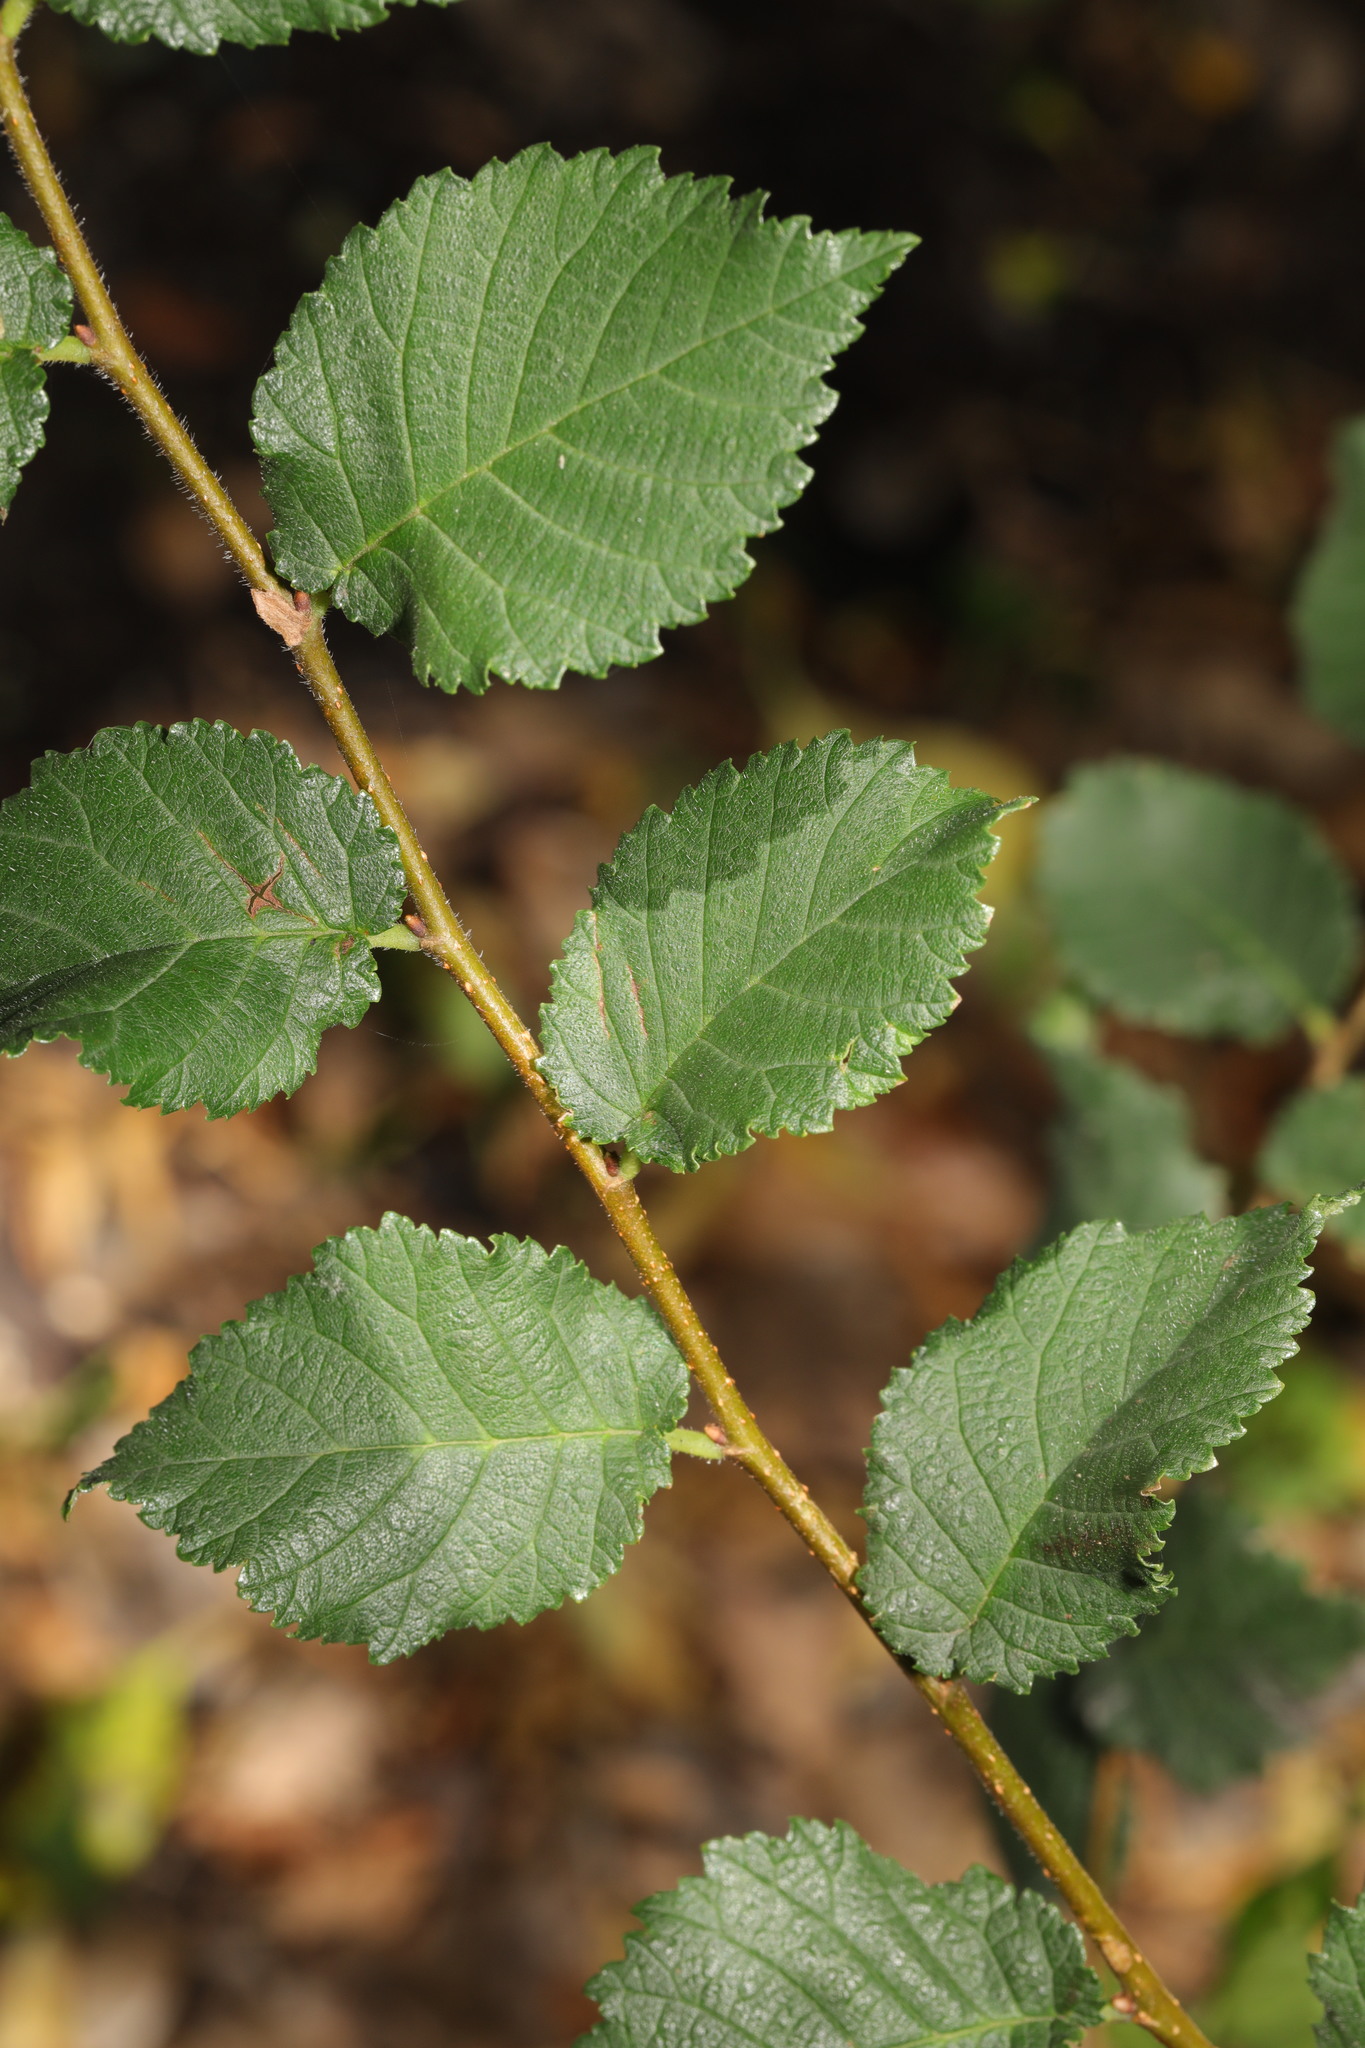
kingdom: Plantae
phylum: Tracheophyta
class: Magnoliopsida
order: Rosales
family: Ulmaceae
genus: Ulmus
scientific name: Ulmus minor
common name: Small-leaved elm
